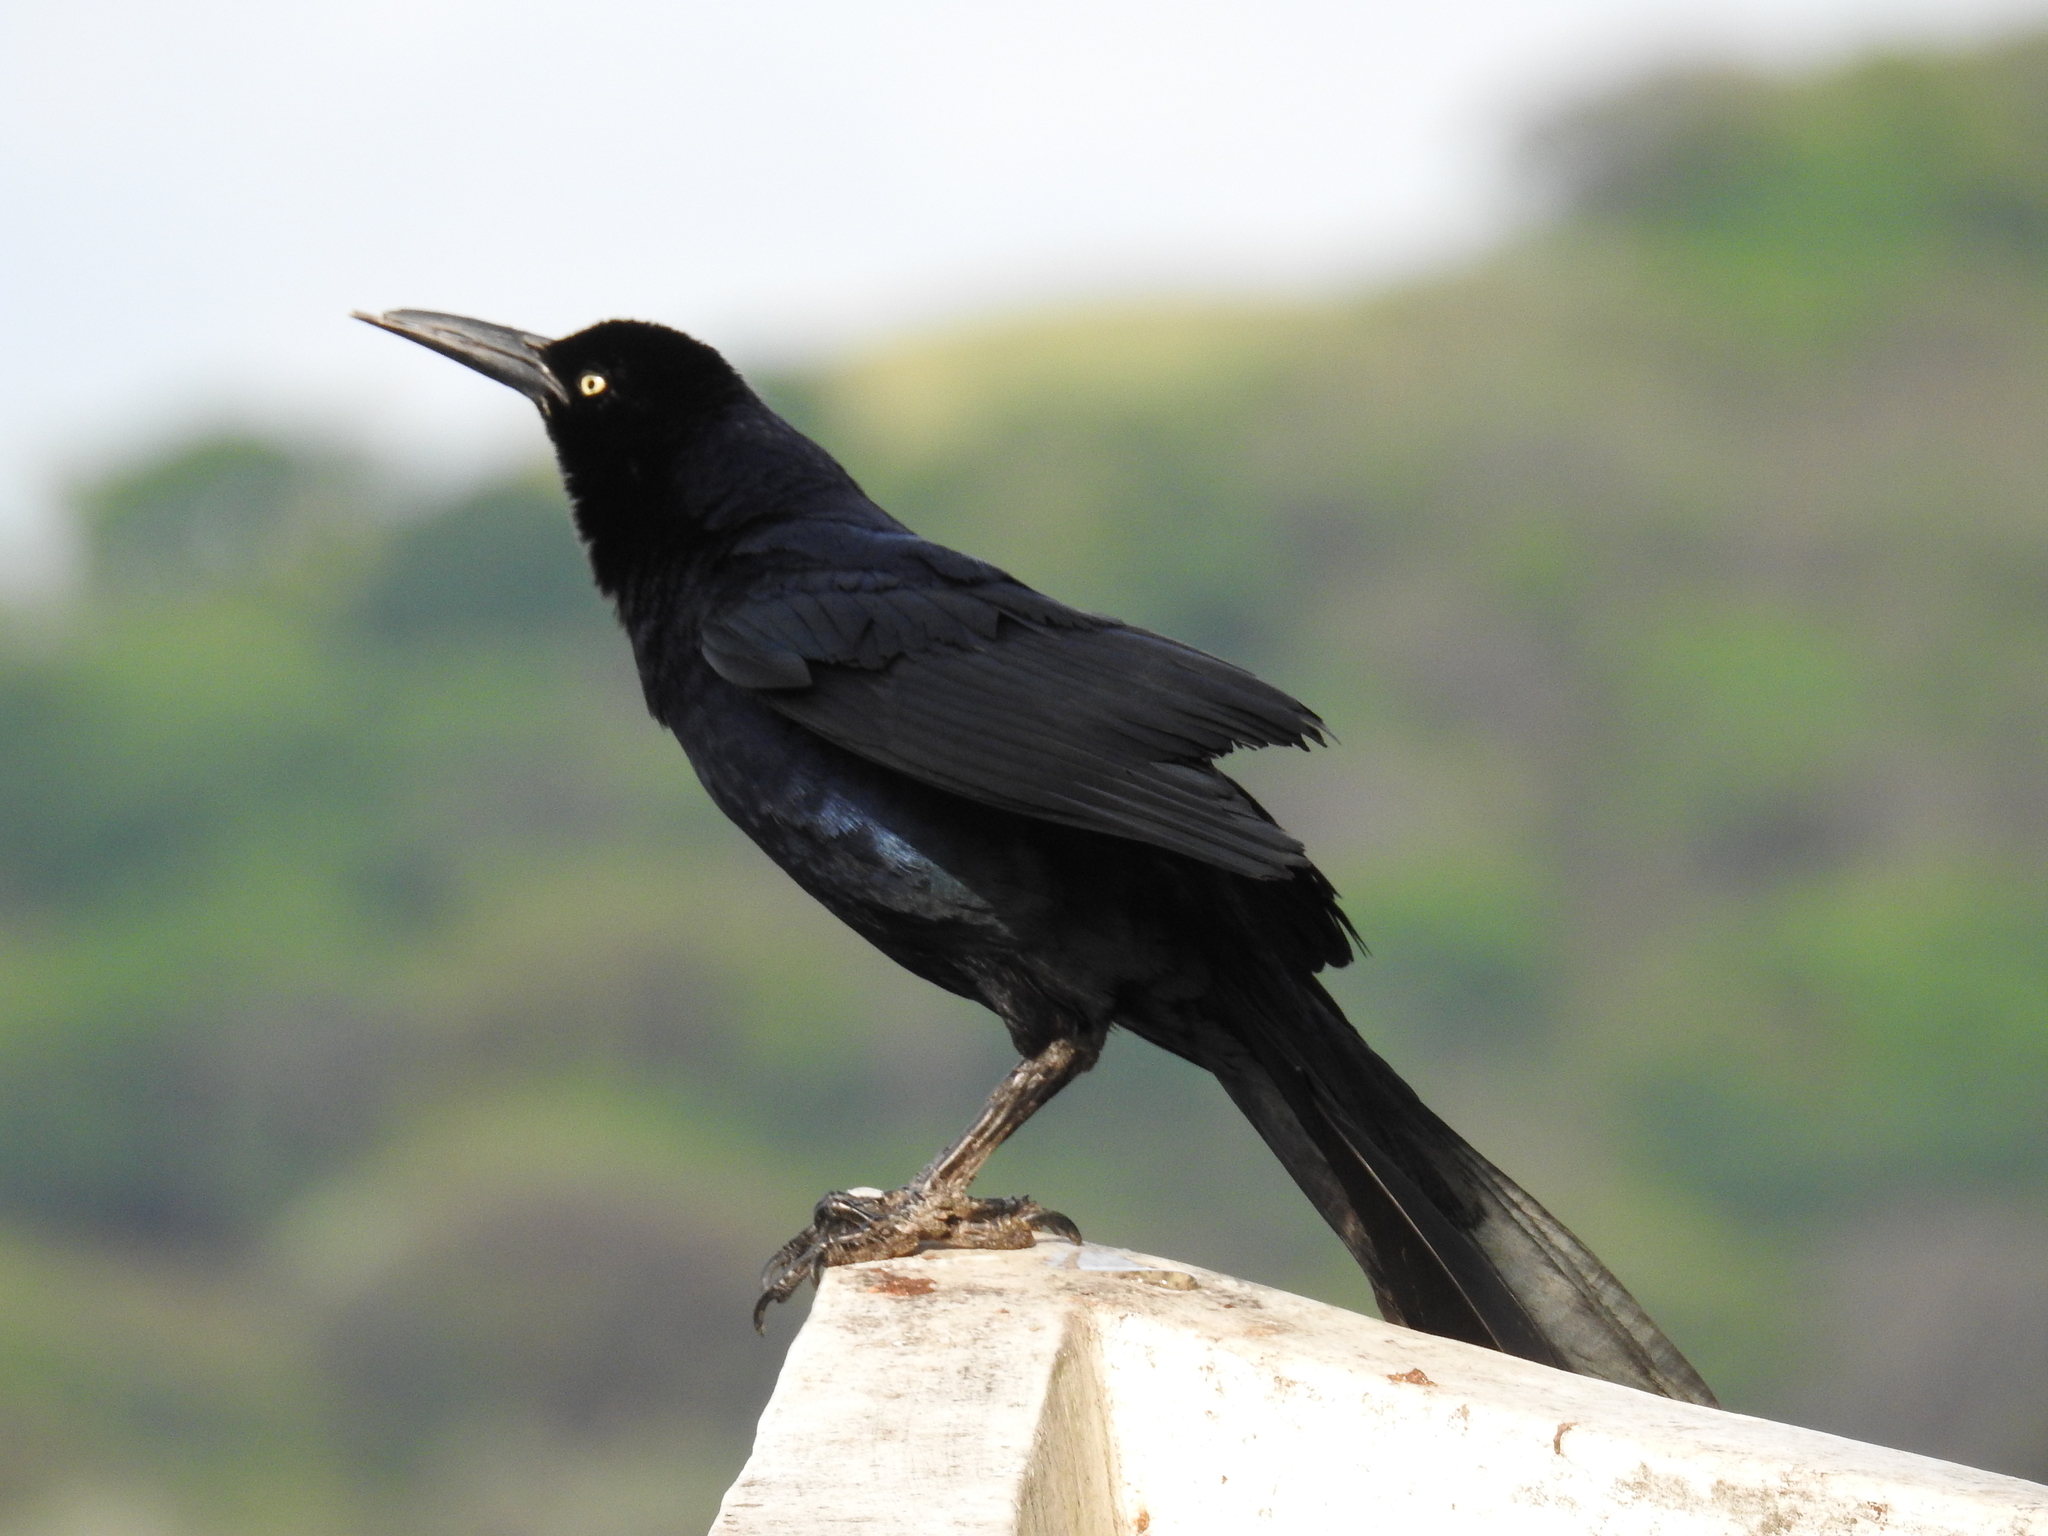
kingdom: Animalia
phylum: Chordata
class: Aves
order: Passeriformes
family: Icteridae
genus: Quiscalus
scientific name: Quiscalus mexicanus
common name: Great-tailed grackle
